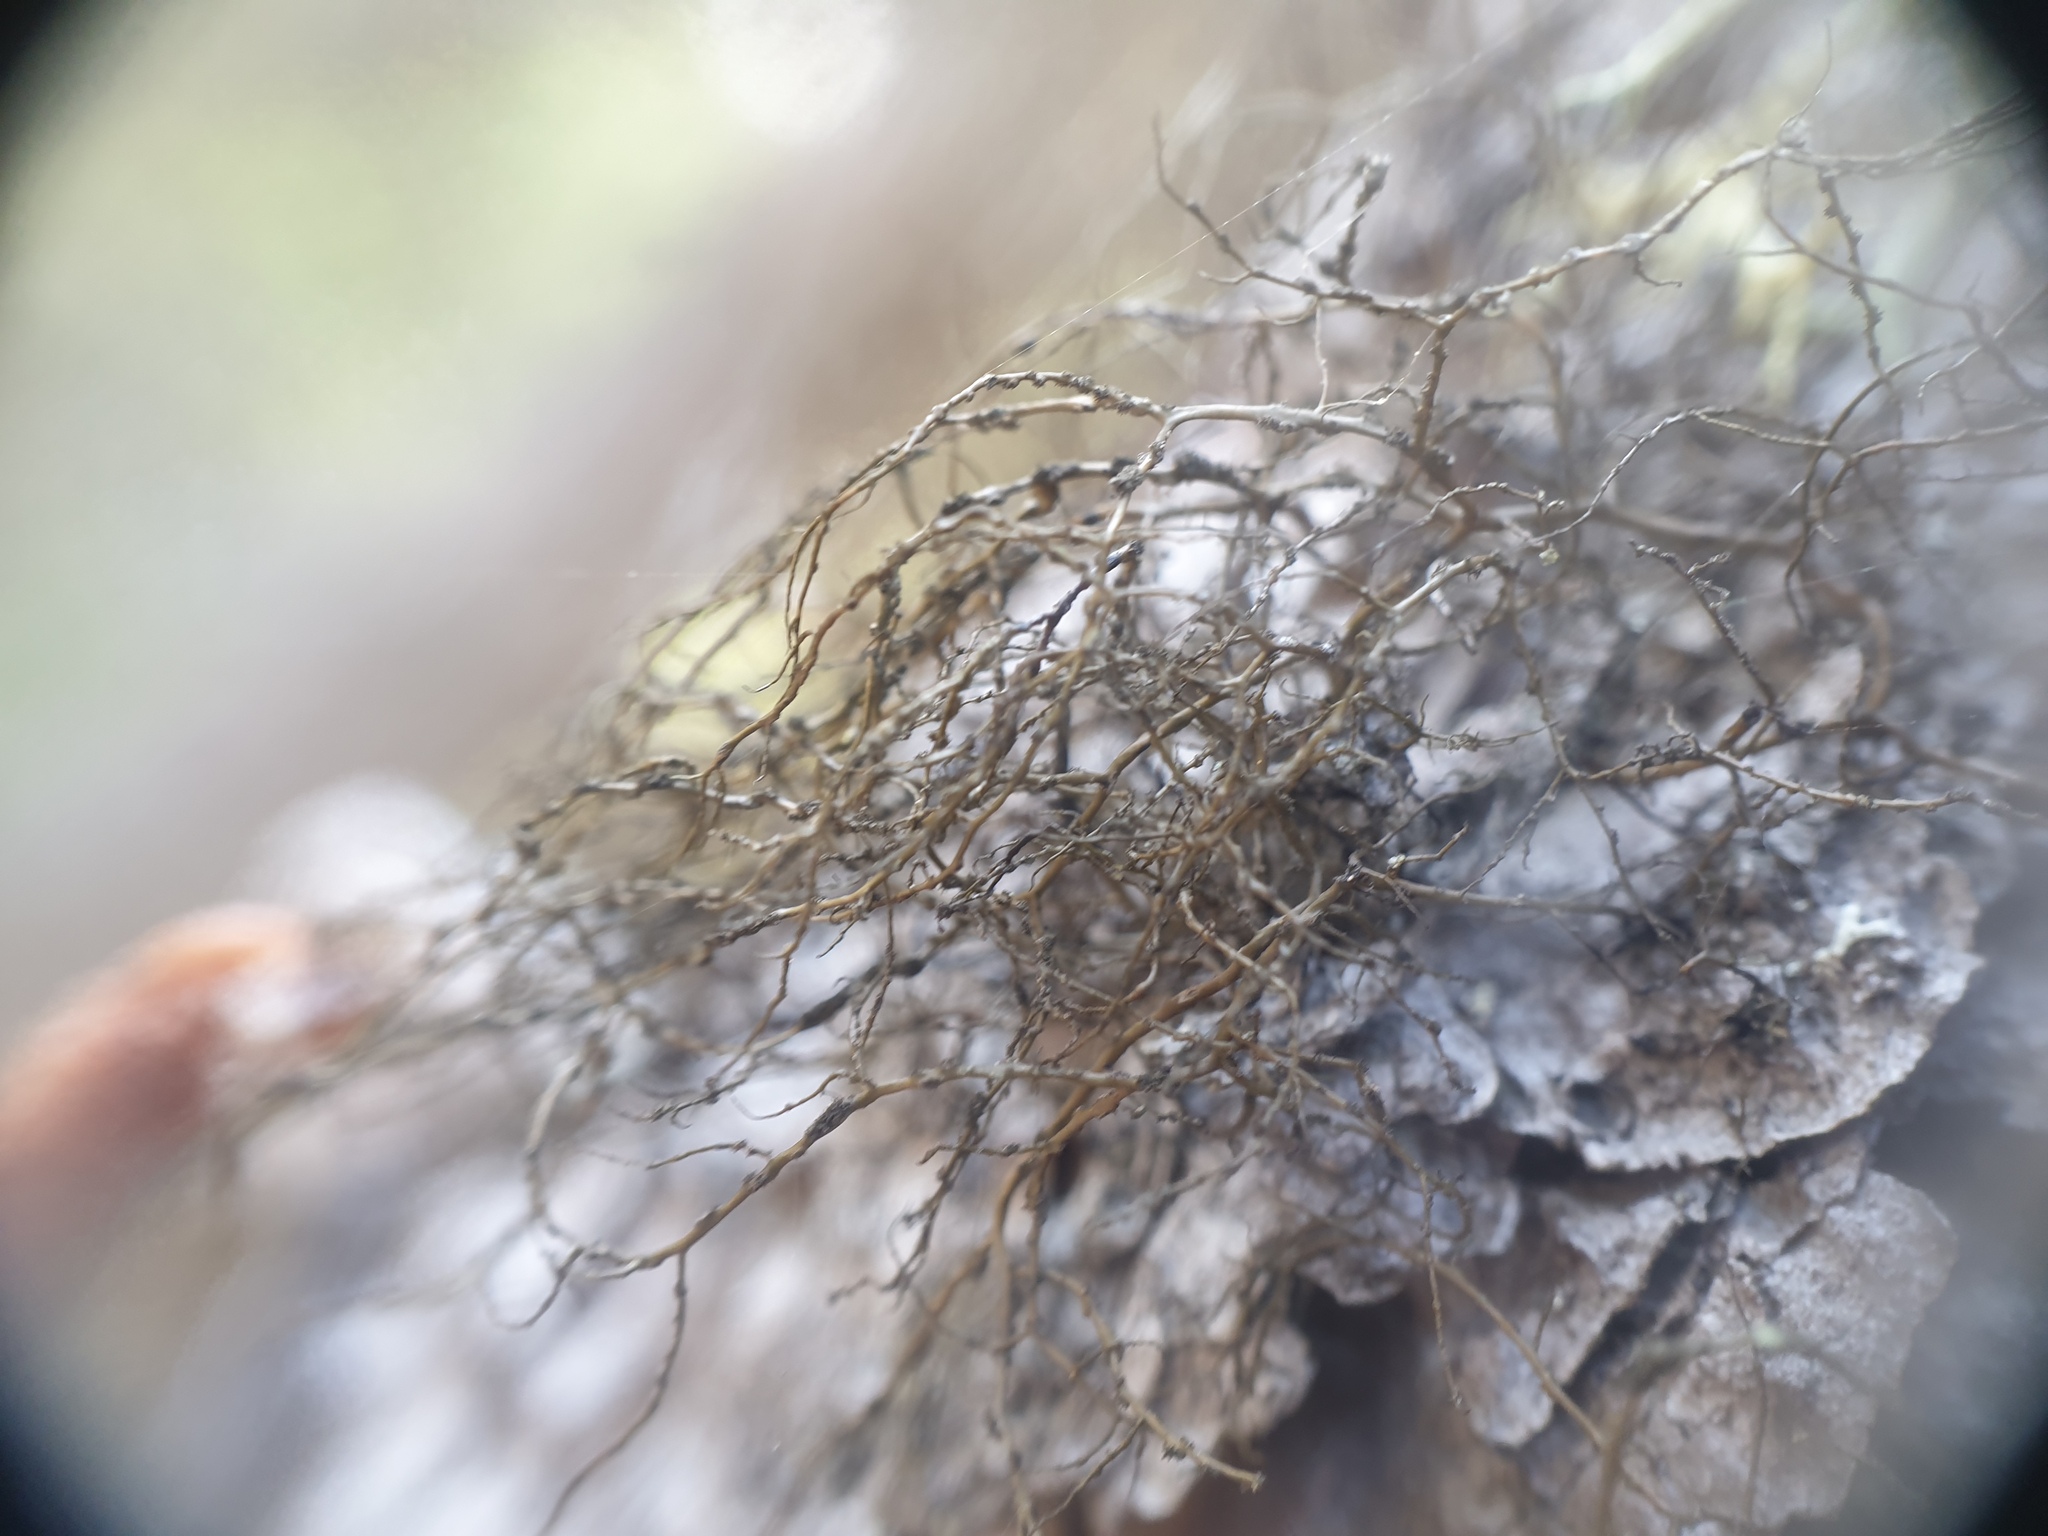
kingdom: Fungi
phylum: Ascomycota
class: Lecanoromycetes
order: Lecanorales
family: Parmeliaceae
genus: Bryoria
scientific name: Bryoria furcellata
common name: Forked hair-lichen
